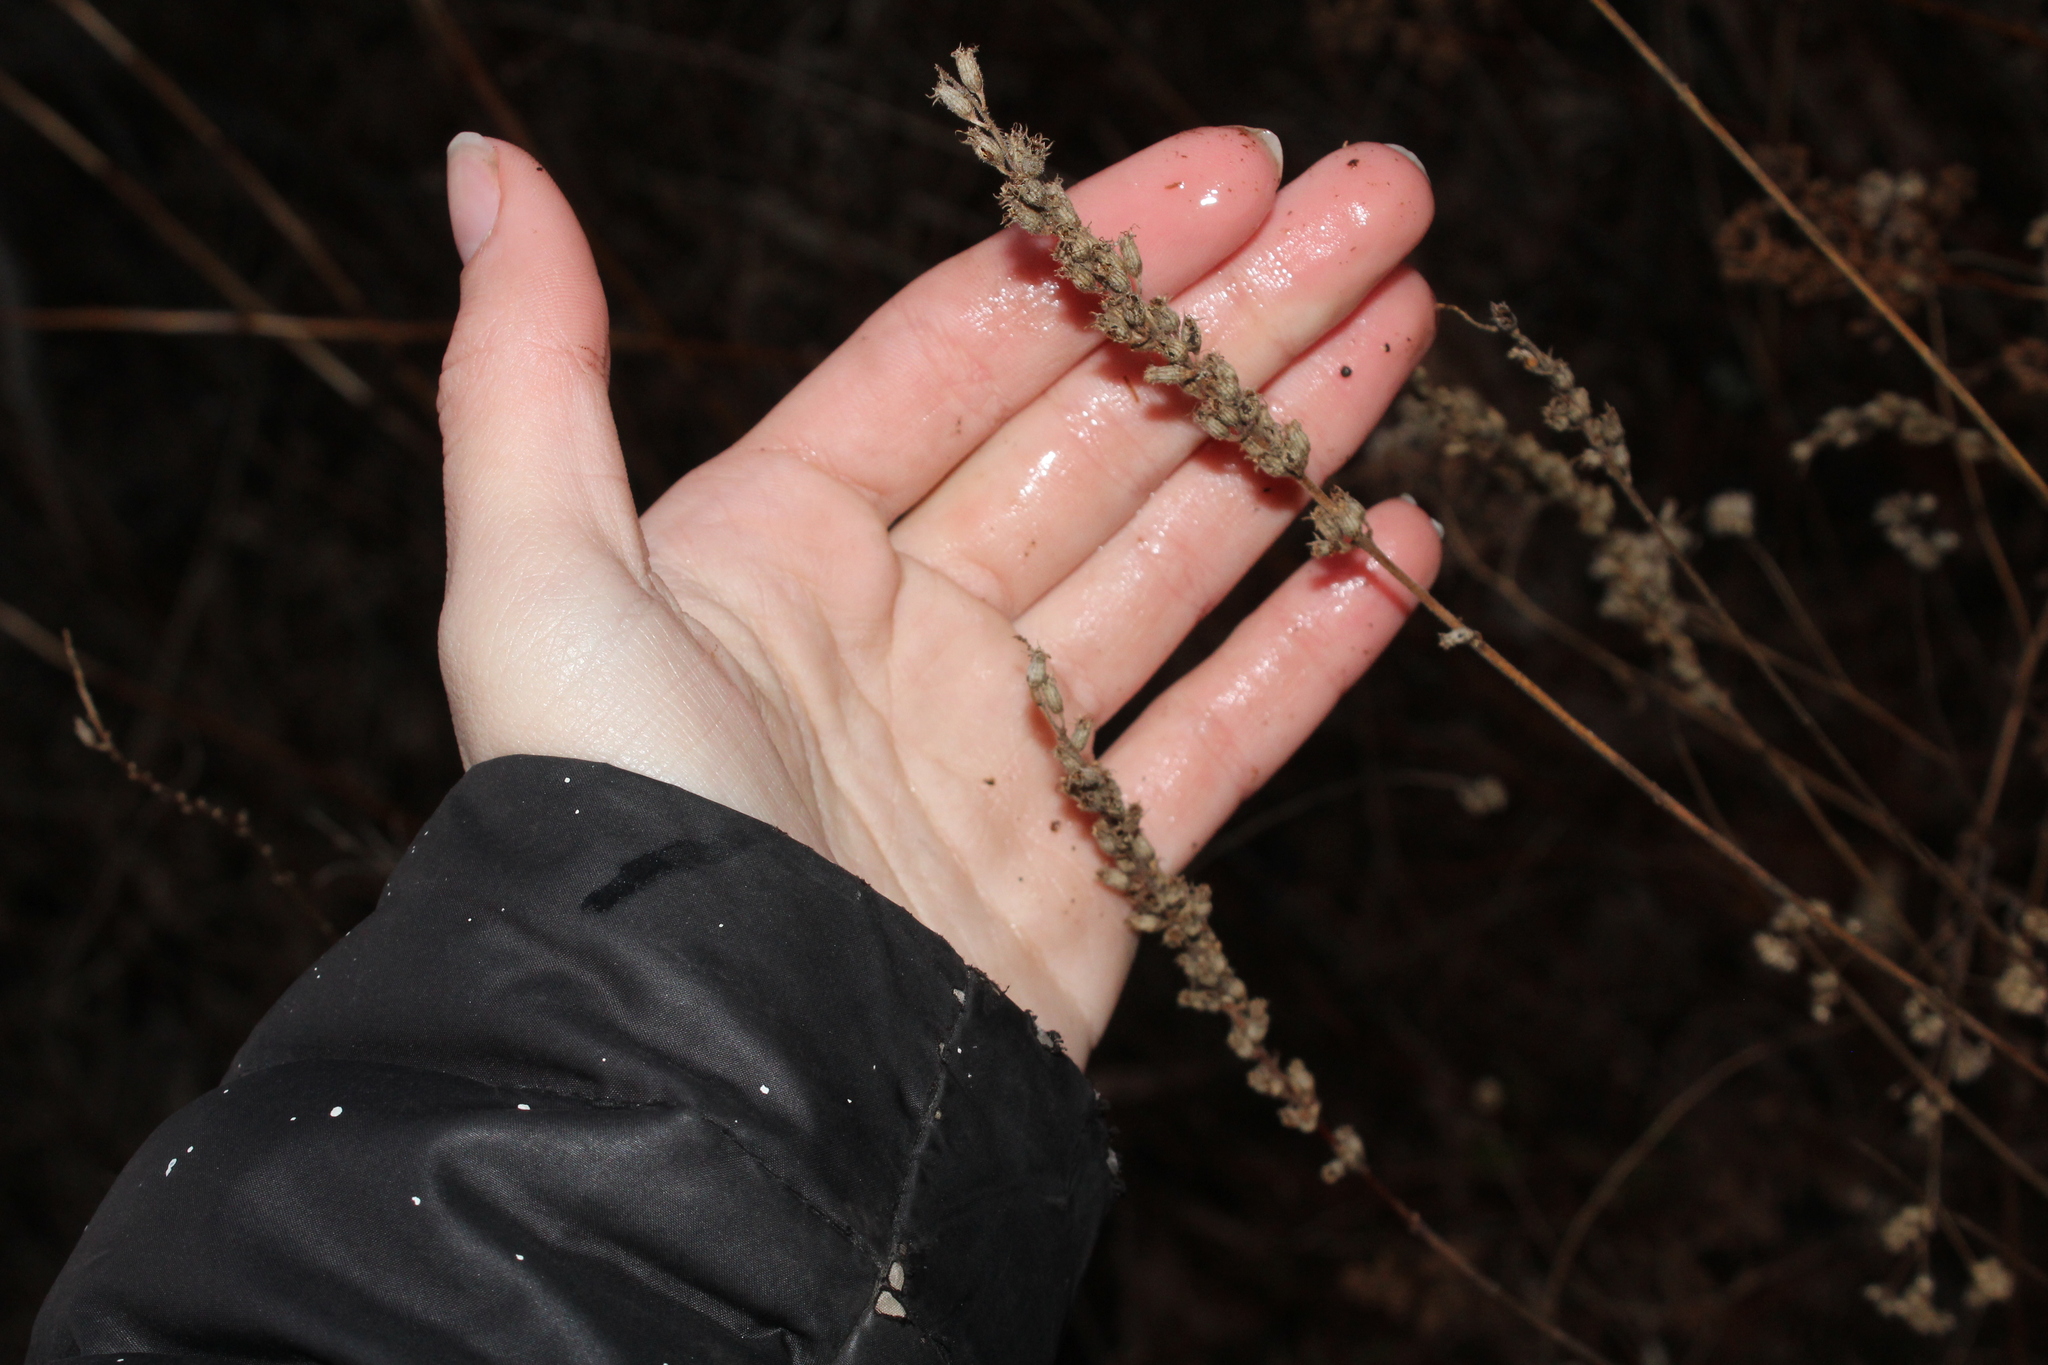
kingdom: Plantae
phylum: Tracheophyta
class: Magnoliopsida
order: Myrtales
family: Lythraceae
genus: Lythrum
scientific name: Lythrum salicaria
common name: Purple loosestrife
